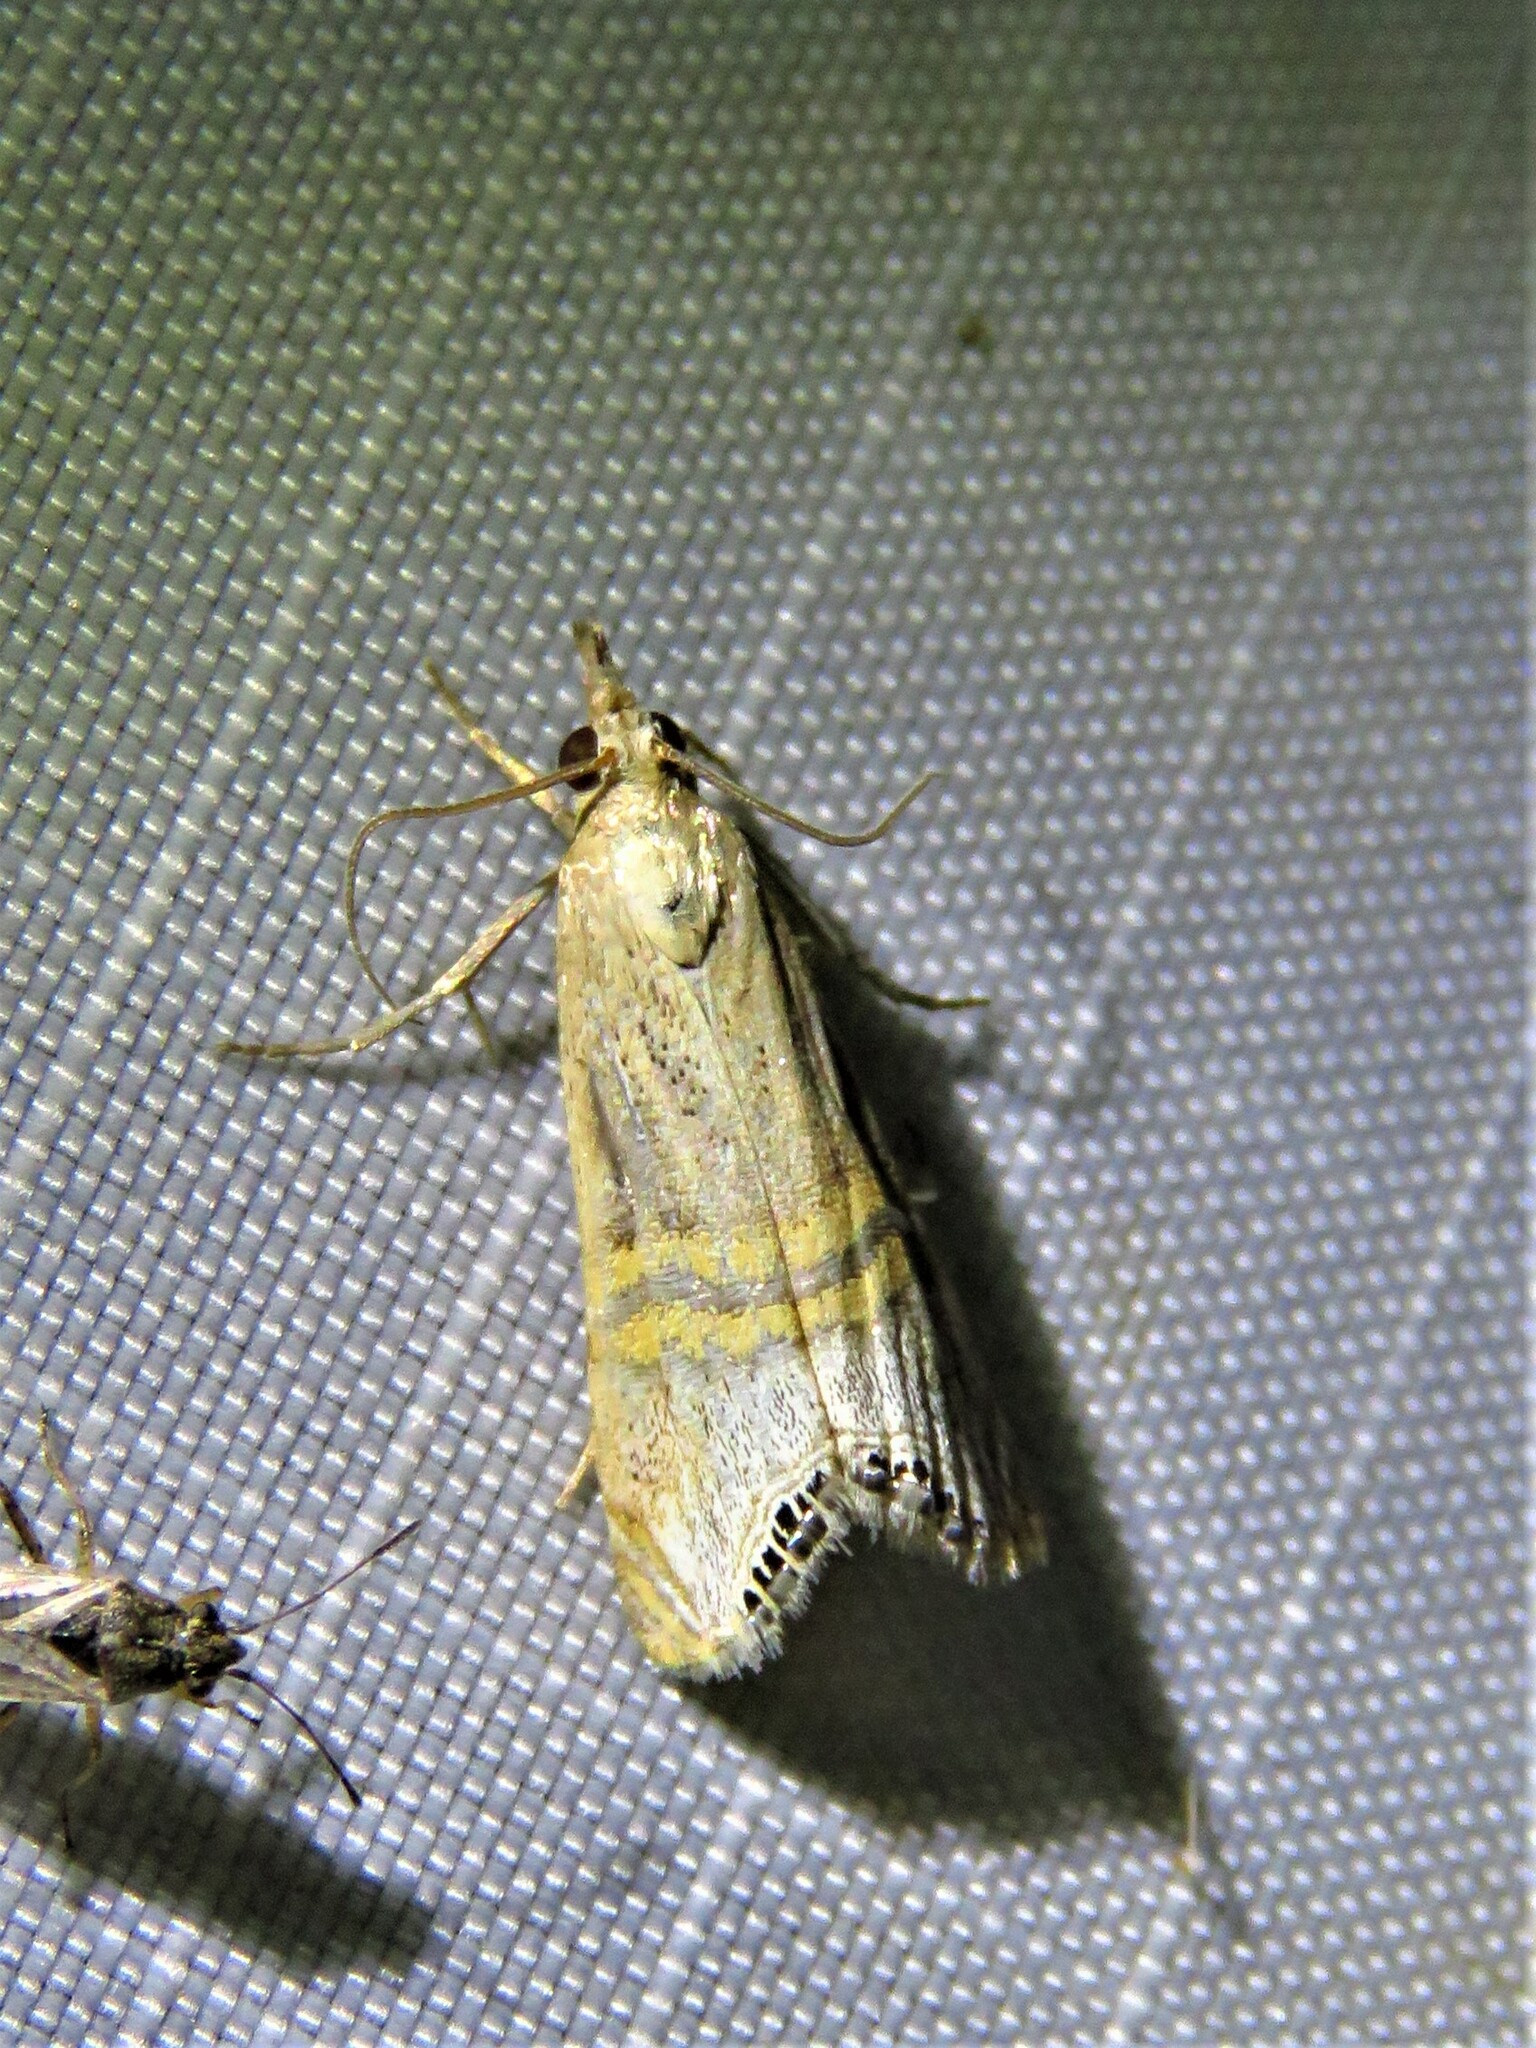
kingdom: Animalia
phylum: Arthropoda
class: Insecta
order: Lepidoptera
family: Crambidae
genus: Euchromius
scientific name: Euchromius ocellea
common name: Necklace veneer moth
